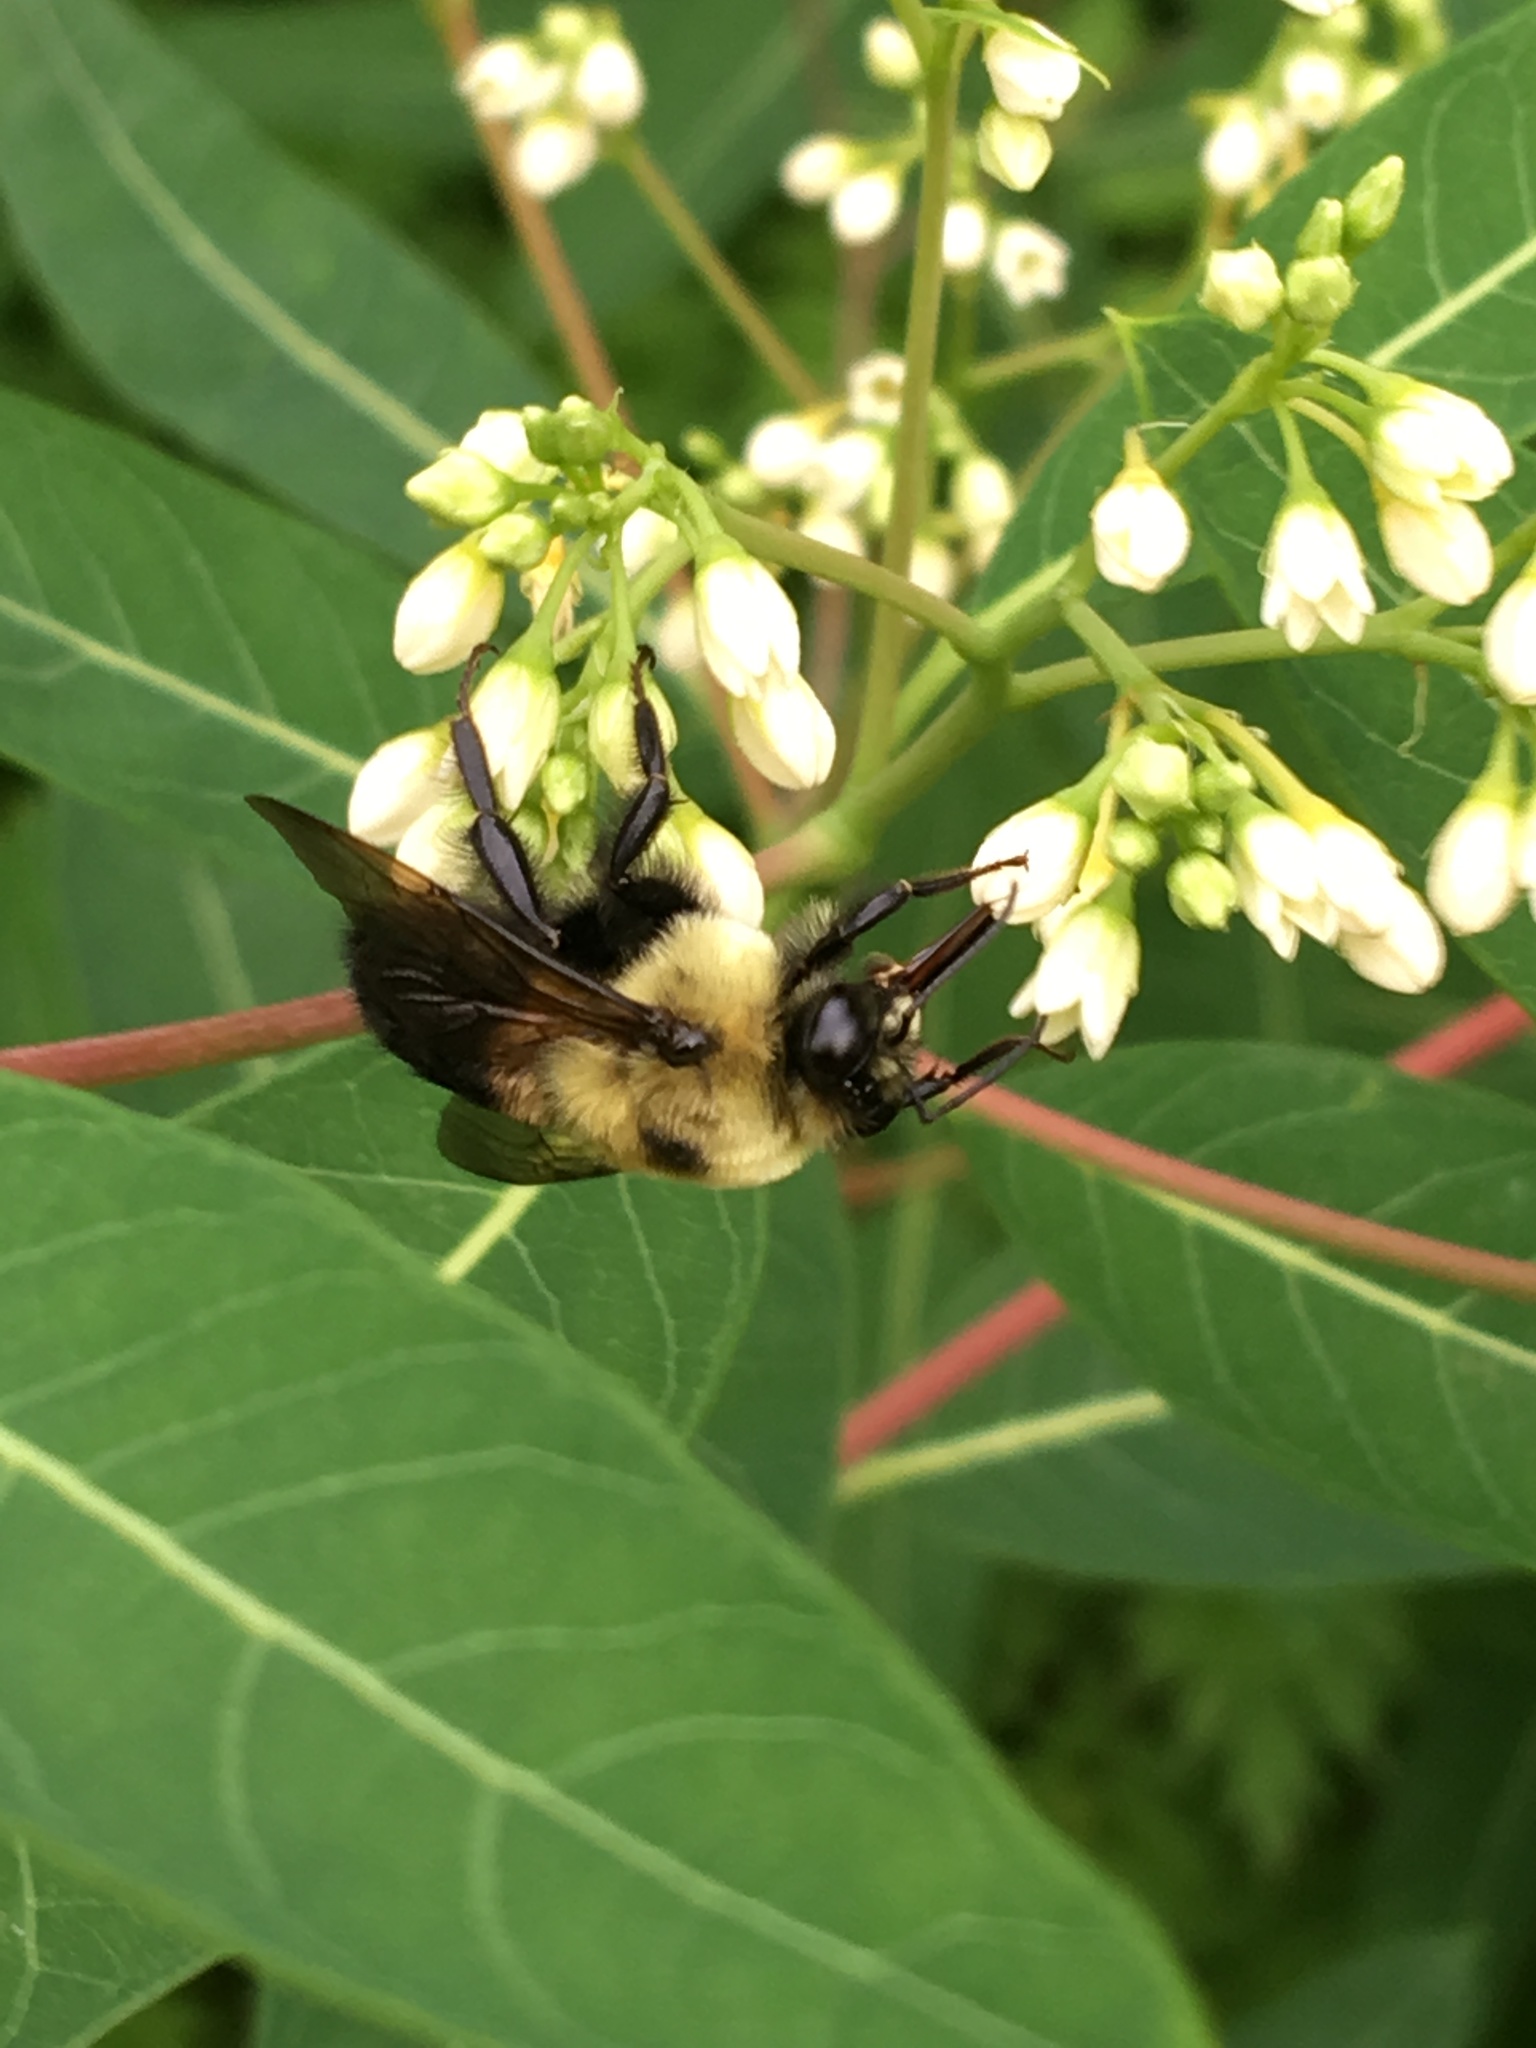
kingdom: Animalia
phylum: Arthropoda
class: Insecta
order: Hymenoptera
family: Apidae
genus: Bombus
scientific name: Bombus griseocollis
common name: Brown-belted bumble bee
